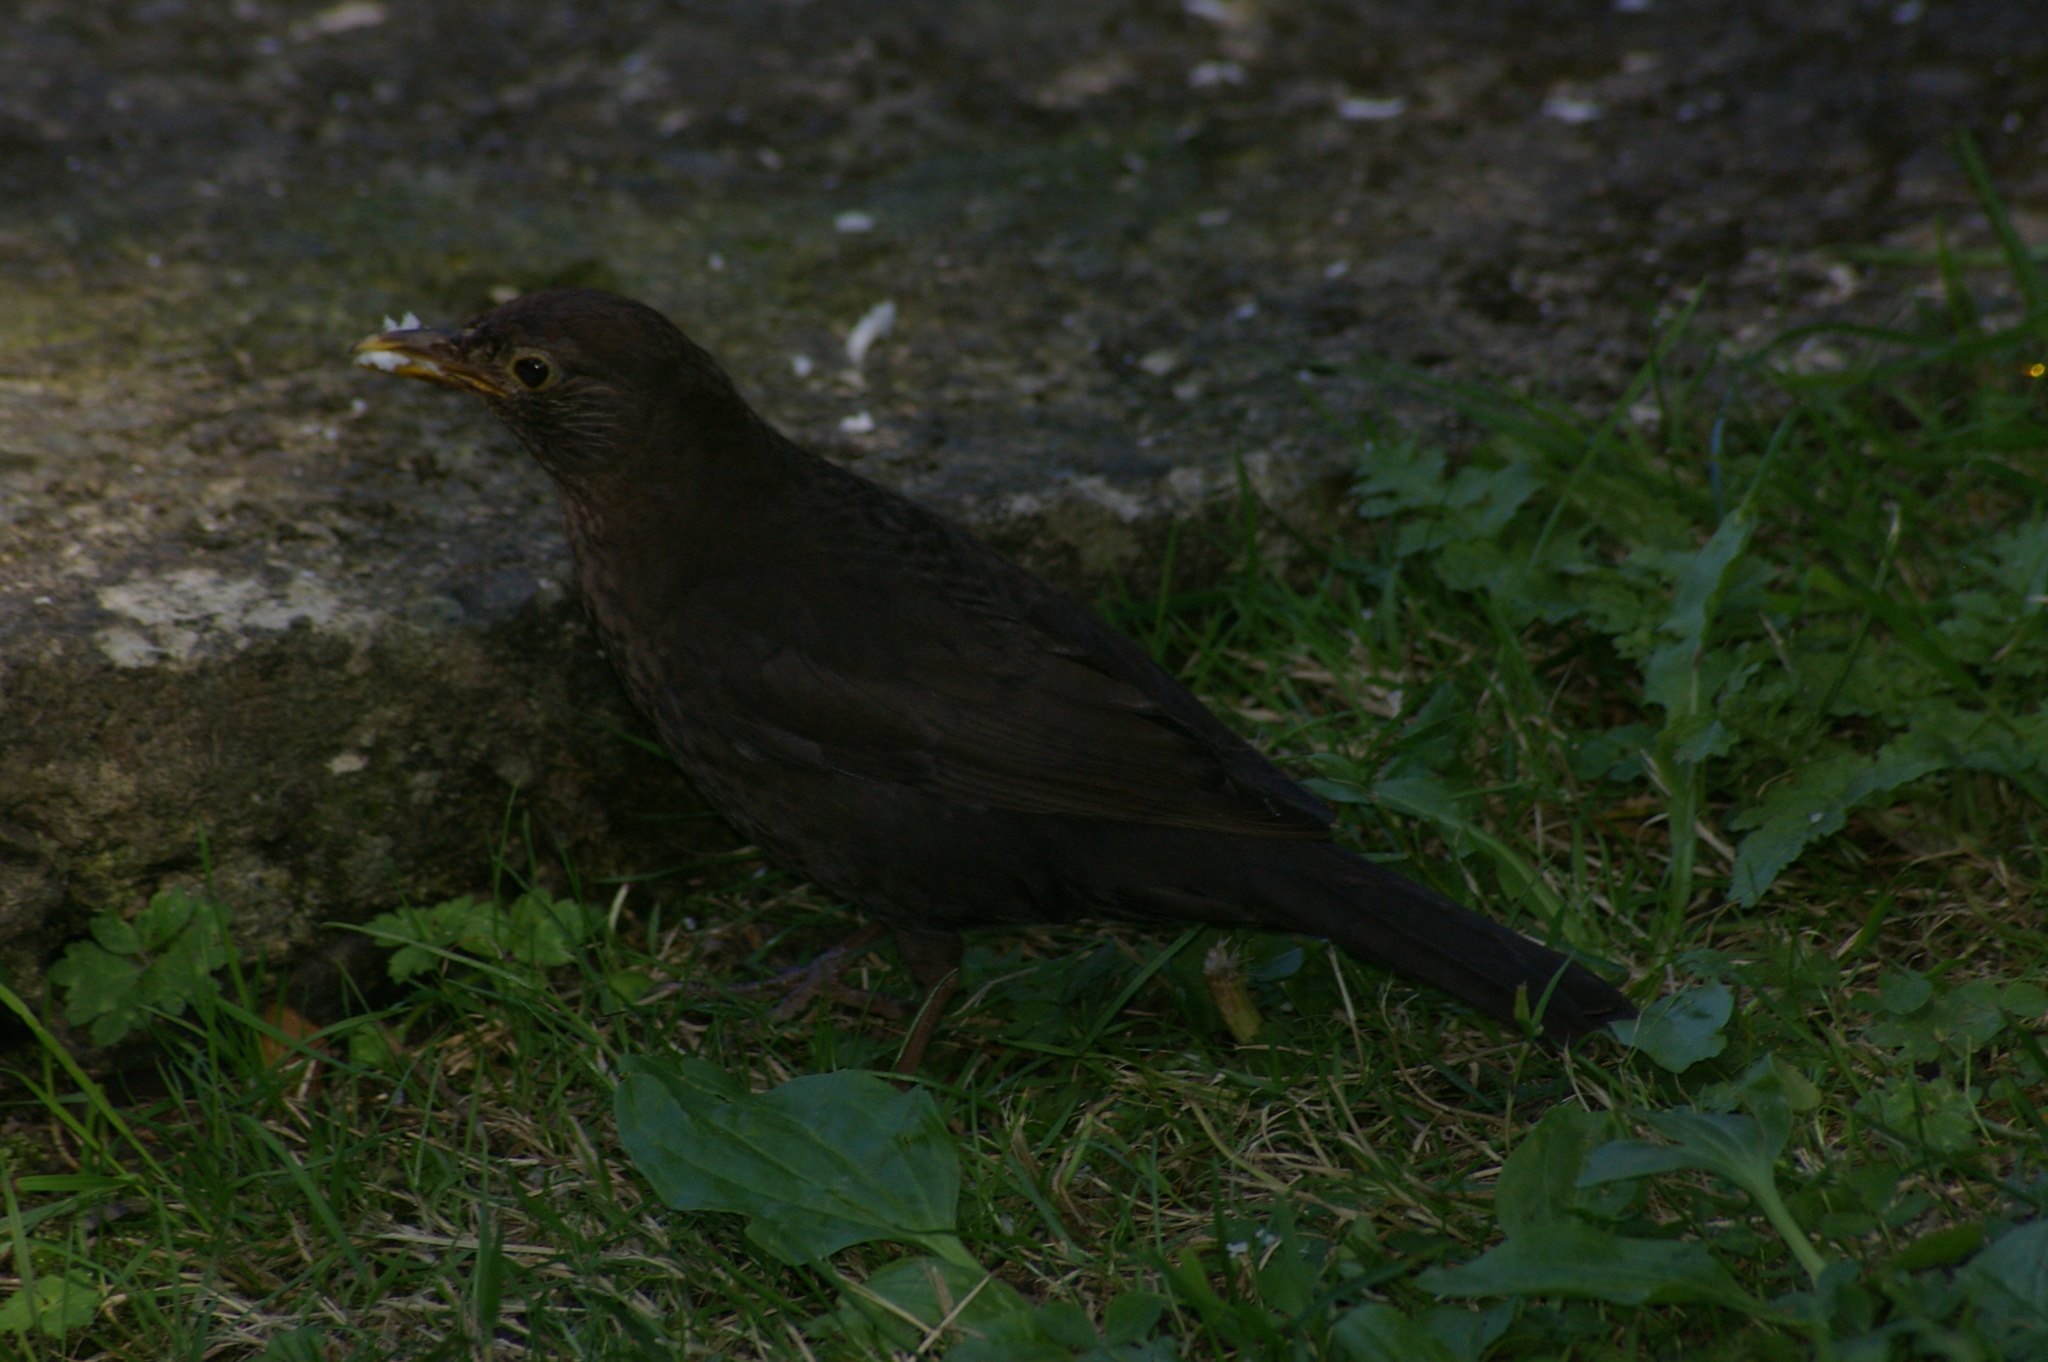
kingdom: Animalia
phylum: Chordata
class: Aves
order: Passeriformes
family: Turdidae
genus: Turdus
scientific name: Turdus merula
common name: Common blackbird
